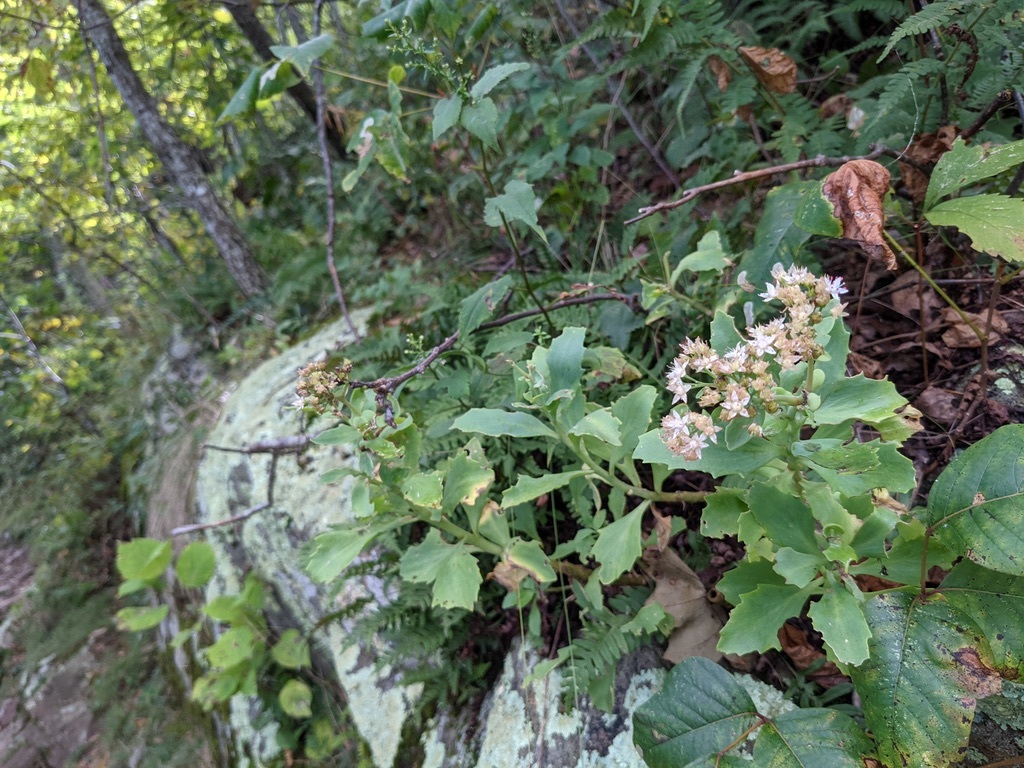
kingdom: Plantae
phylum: Tracheophyta
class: Magnoliopsida
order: Saxifragales
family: Crassulaceae
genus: Hylotelephium
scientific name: Hylotelephium telephioides
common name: Allegheny stonecrop
